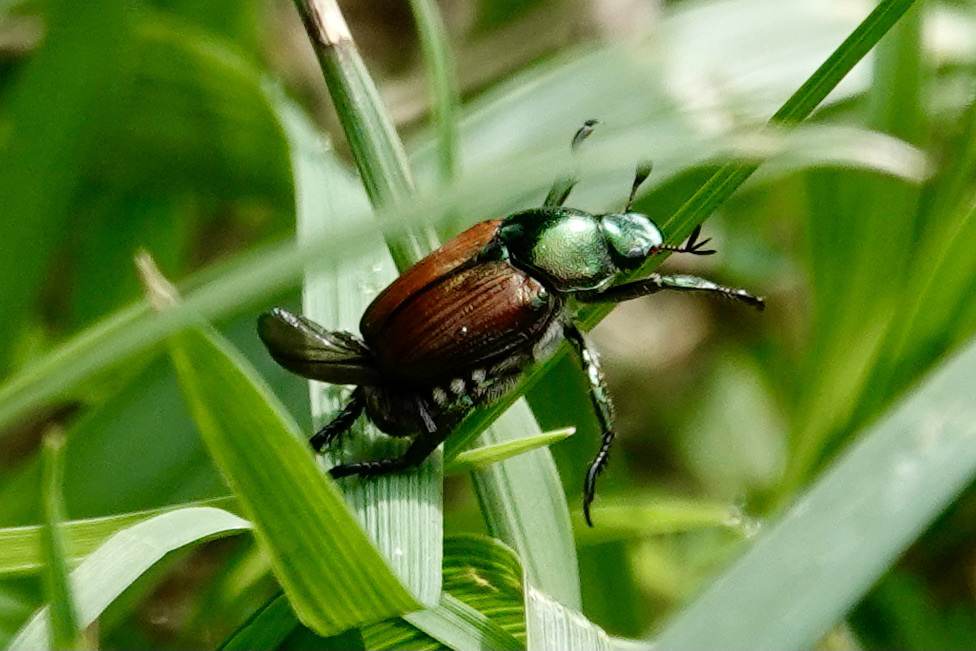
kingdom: Animalia
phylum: Arthropoda
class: Insecta
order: Coleoptera
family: Scarabaeidae
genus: Popillia
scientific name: Popillia japonica
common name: Japanese beetle
